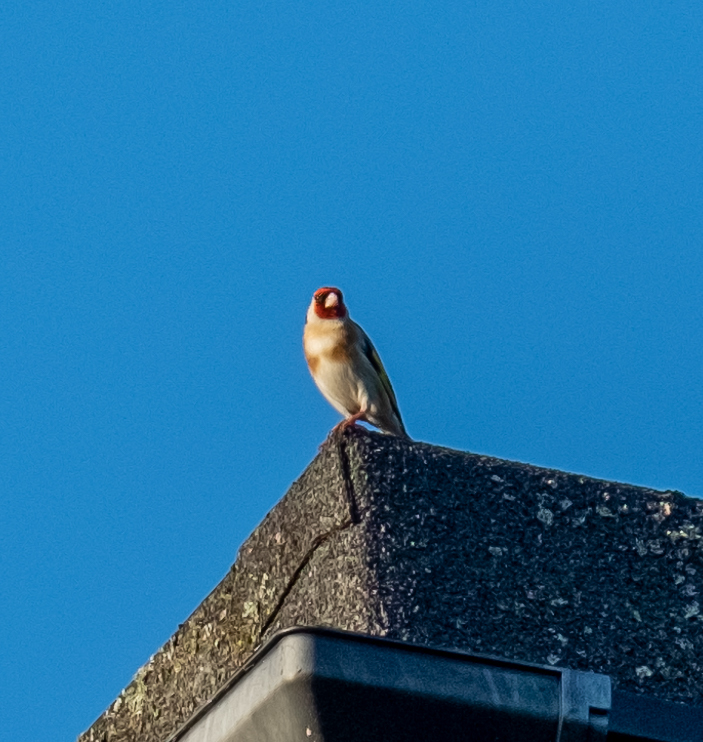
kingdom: Animalia
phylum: Chordata
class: Aves
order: Passeriformes
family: Fringillidae
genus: Carduelis
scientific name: Carduelis carduelis
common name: European goldfinch
